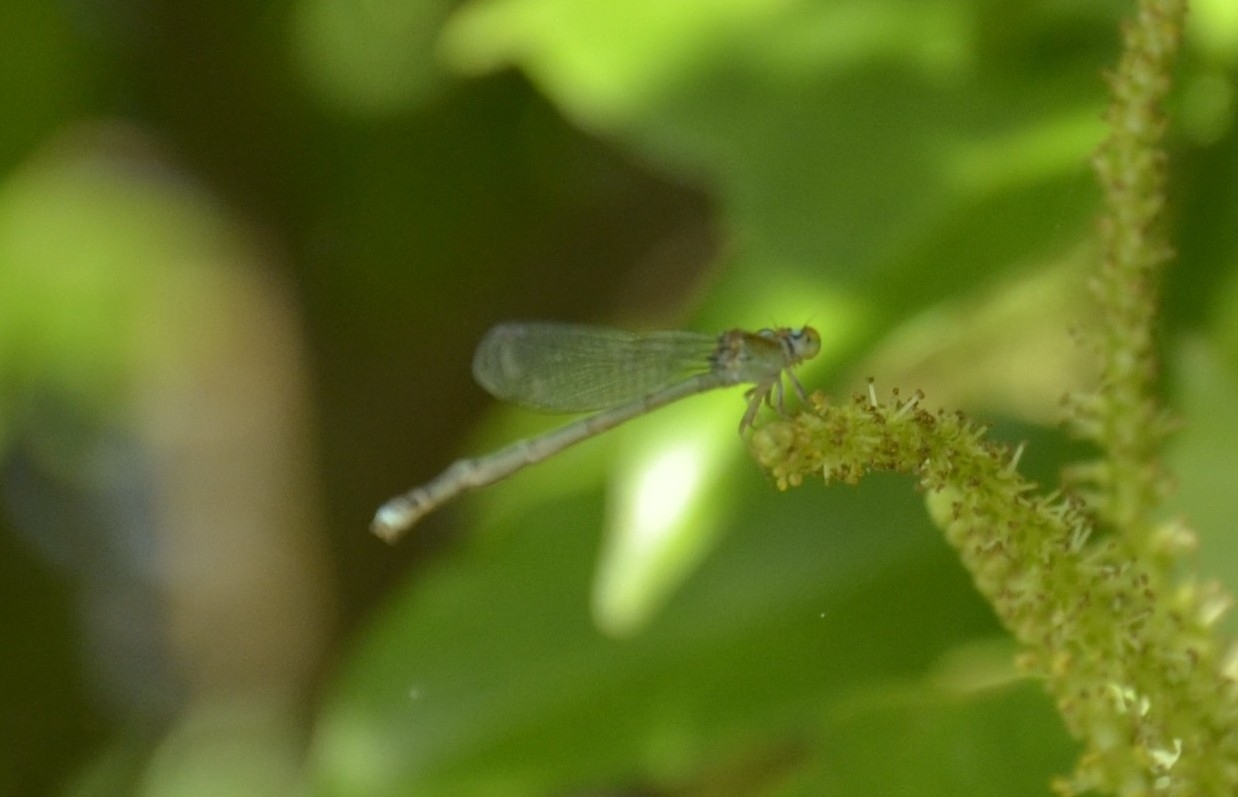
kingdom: Animalia
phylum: Arthropoda
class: Insecta
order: Odonata
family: Coenagrionidae
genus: Pseudagrion
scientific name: Pseudagrion microcephalum
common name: Blue riverdamsel
